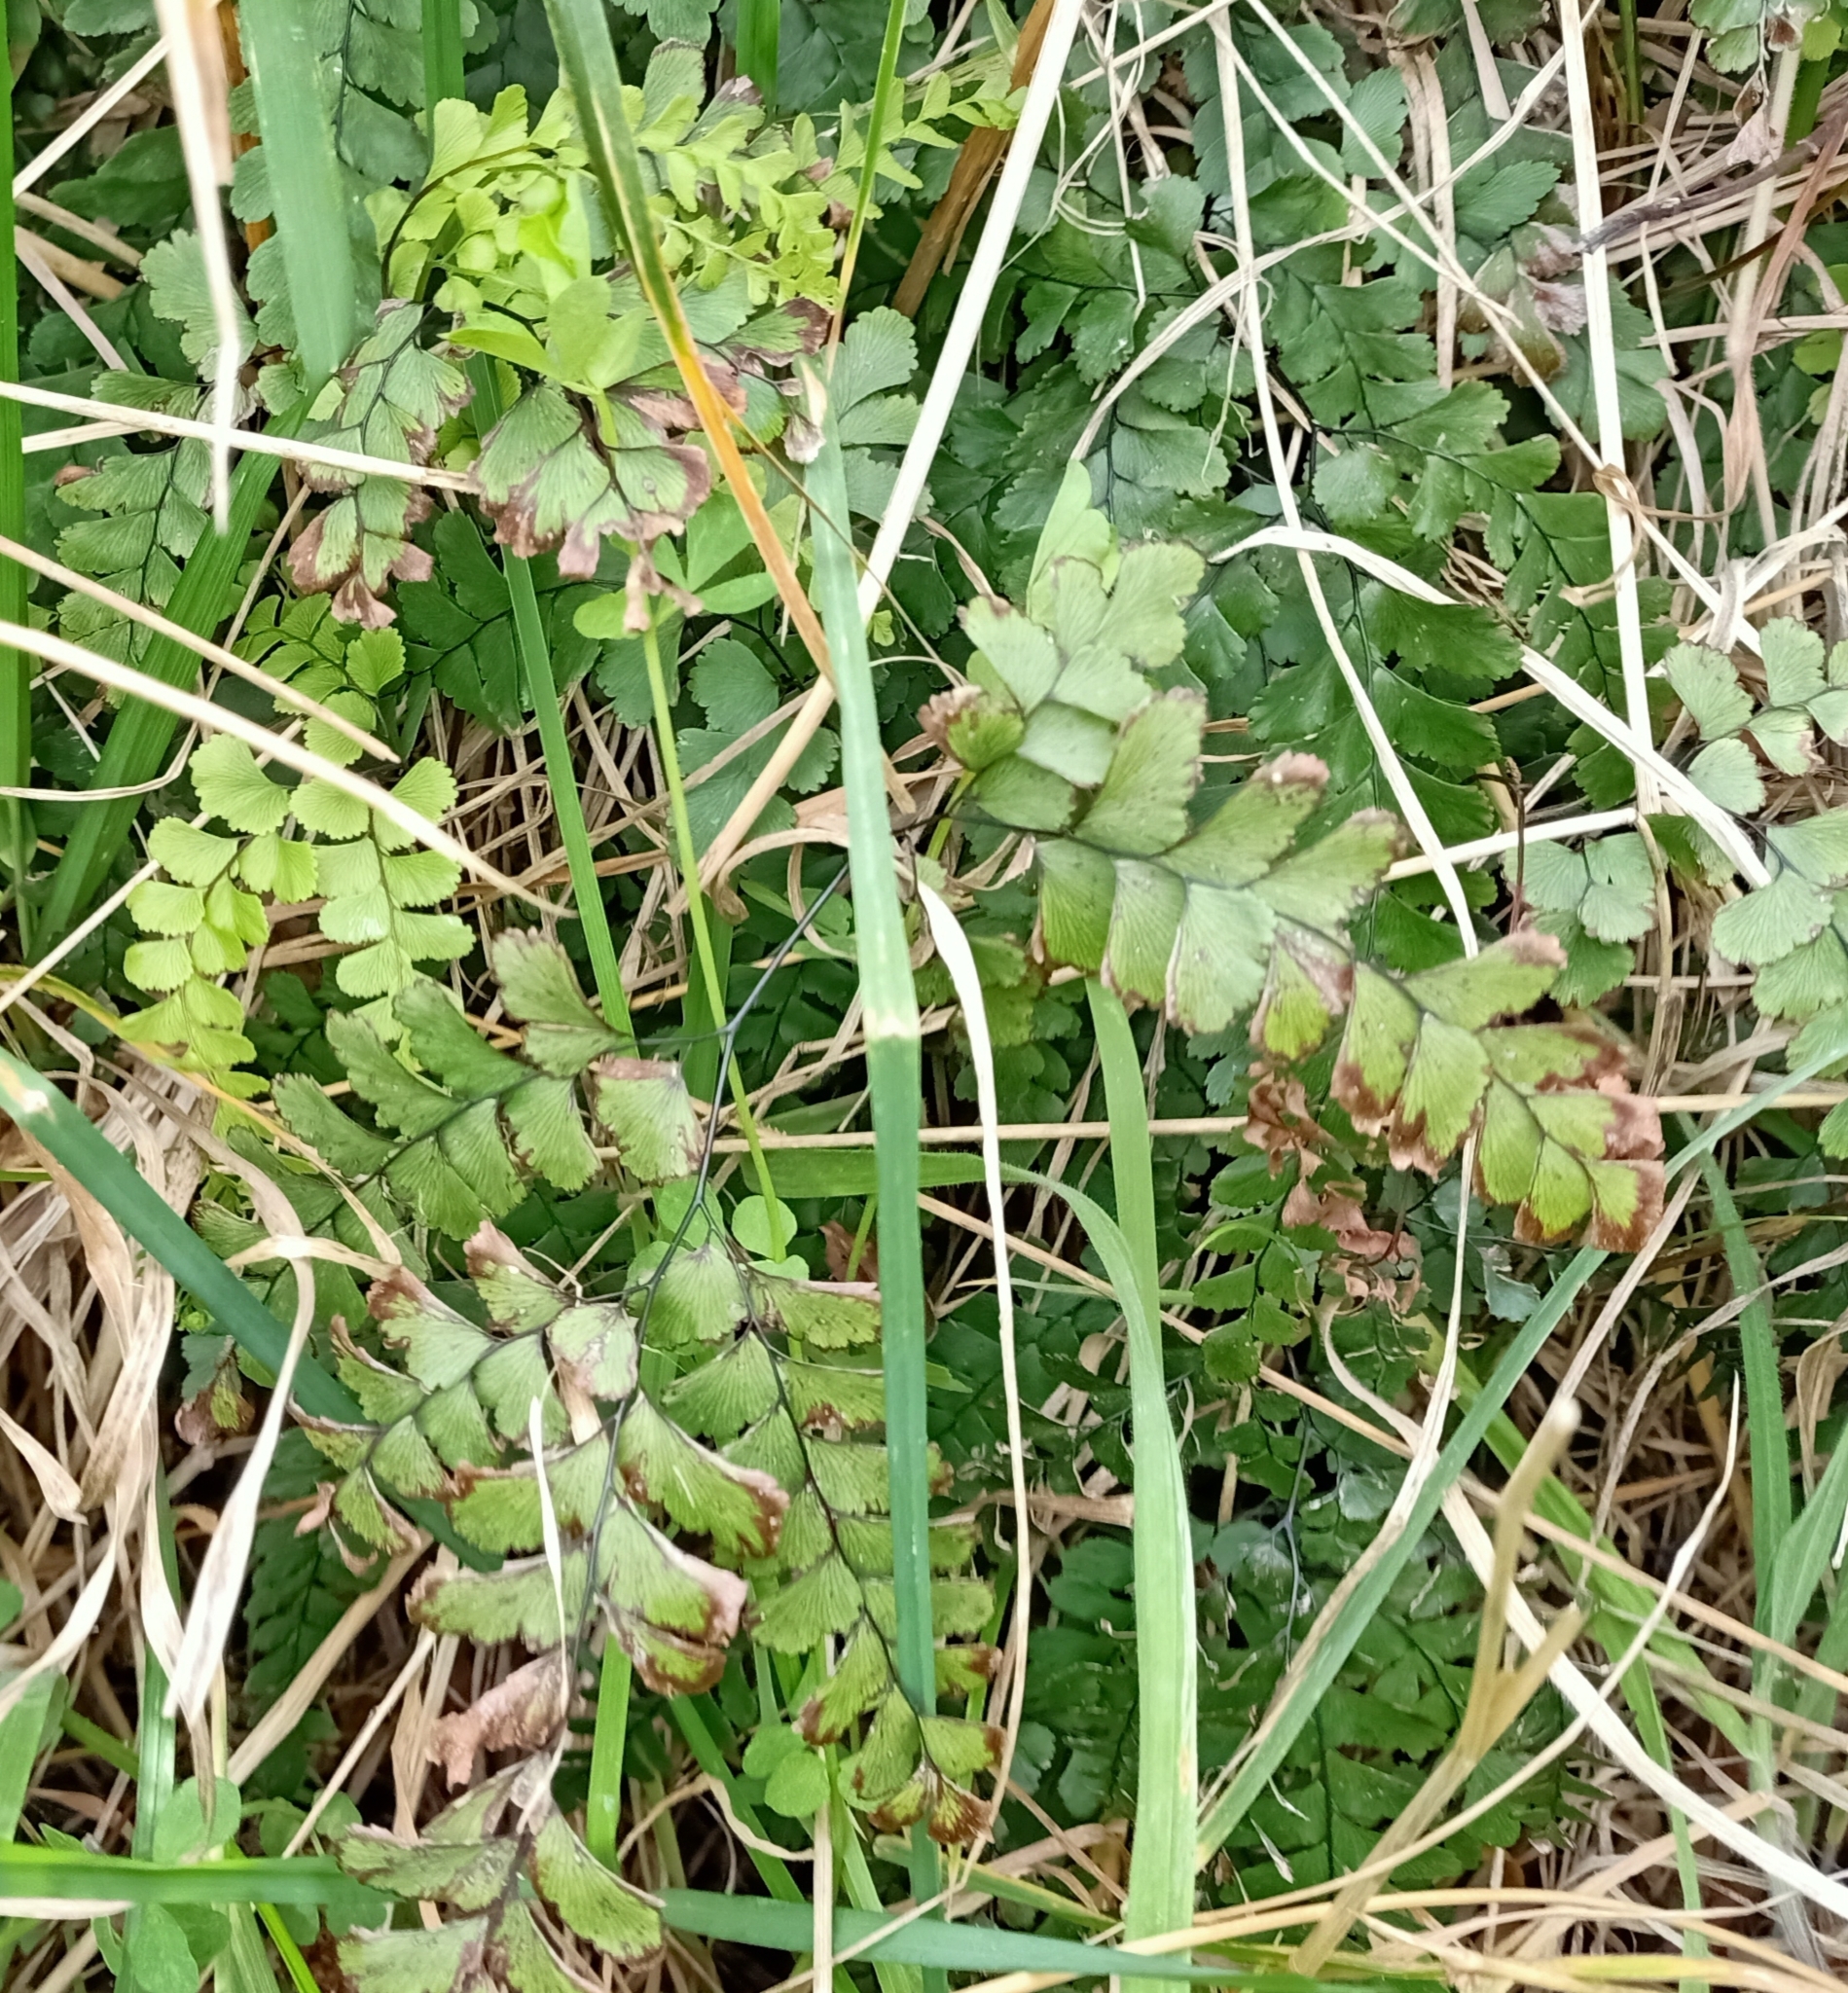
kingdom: Plantae
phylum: Tracheophyta
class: Polypodiopsida
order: Polypodiales
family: Pteridaceae
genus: Adiantum
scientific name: Adiantum cunninghamii
